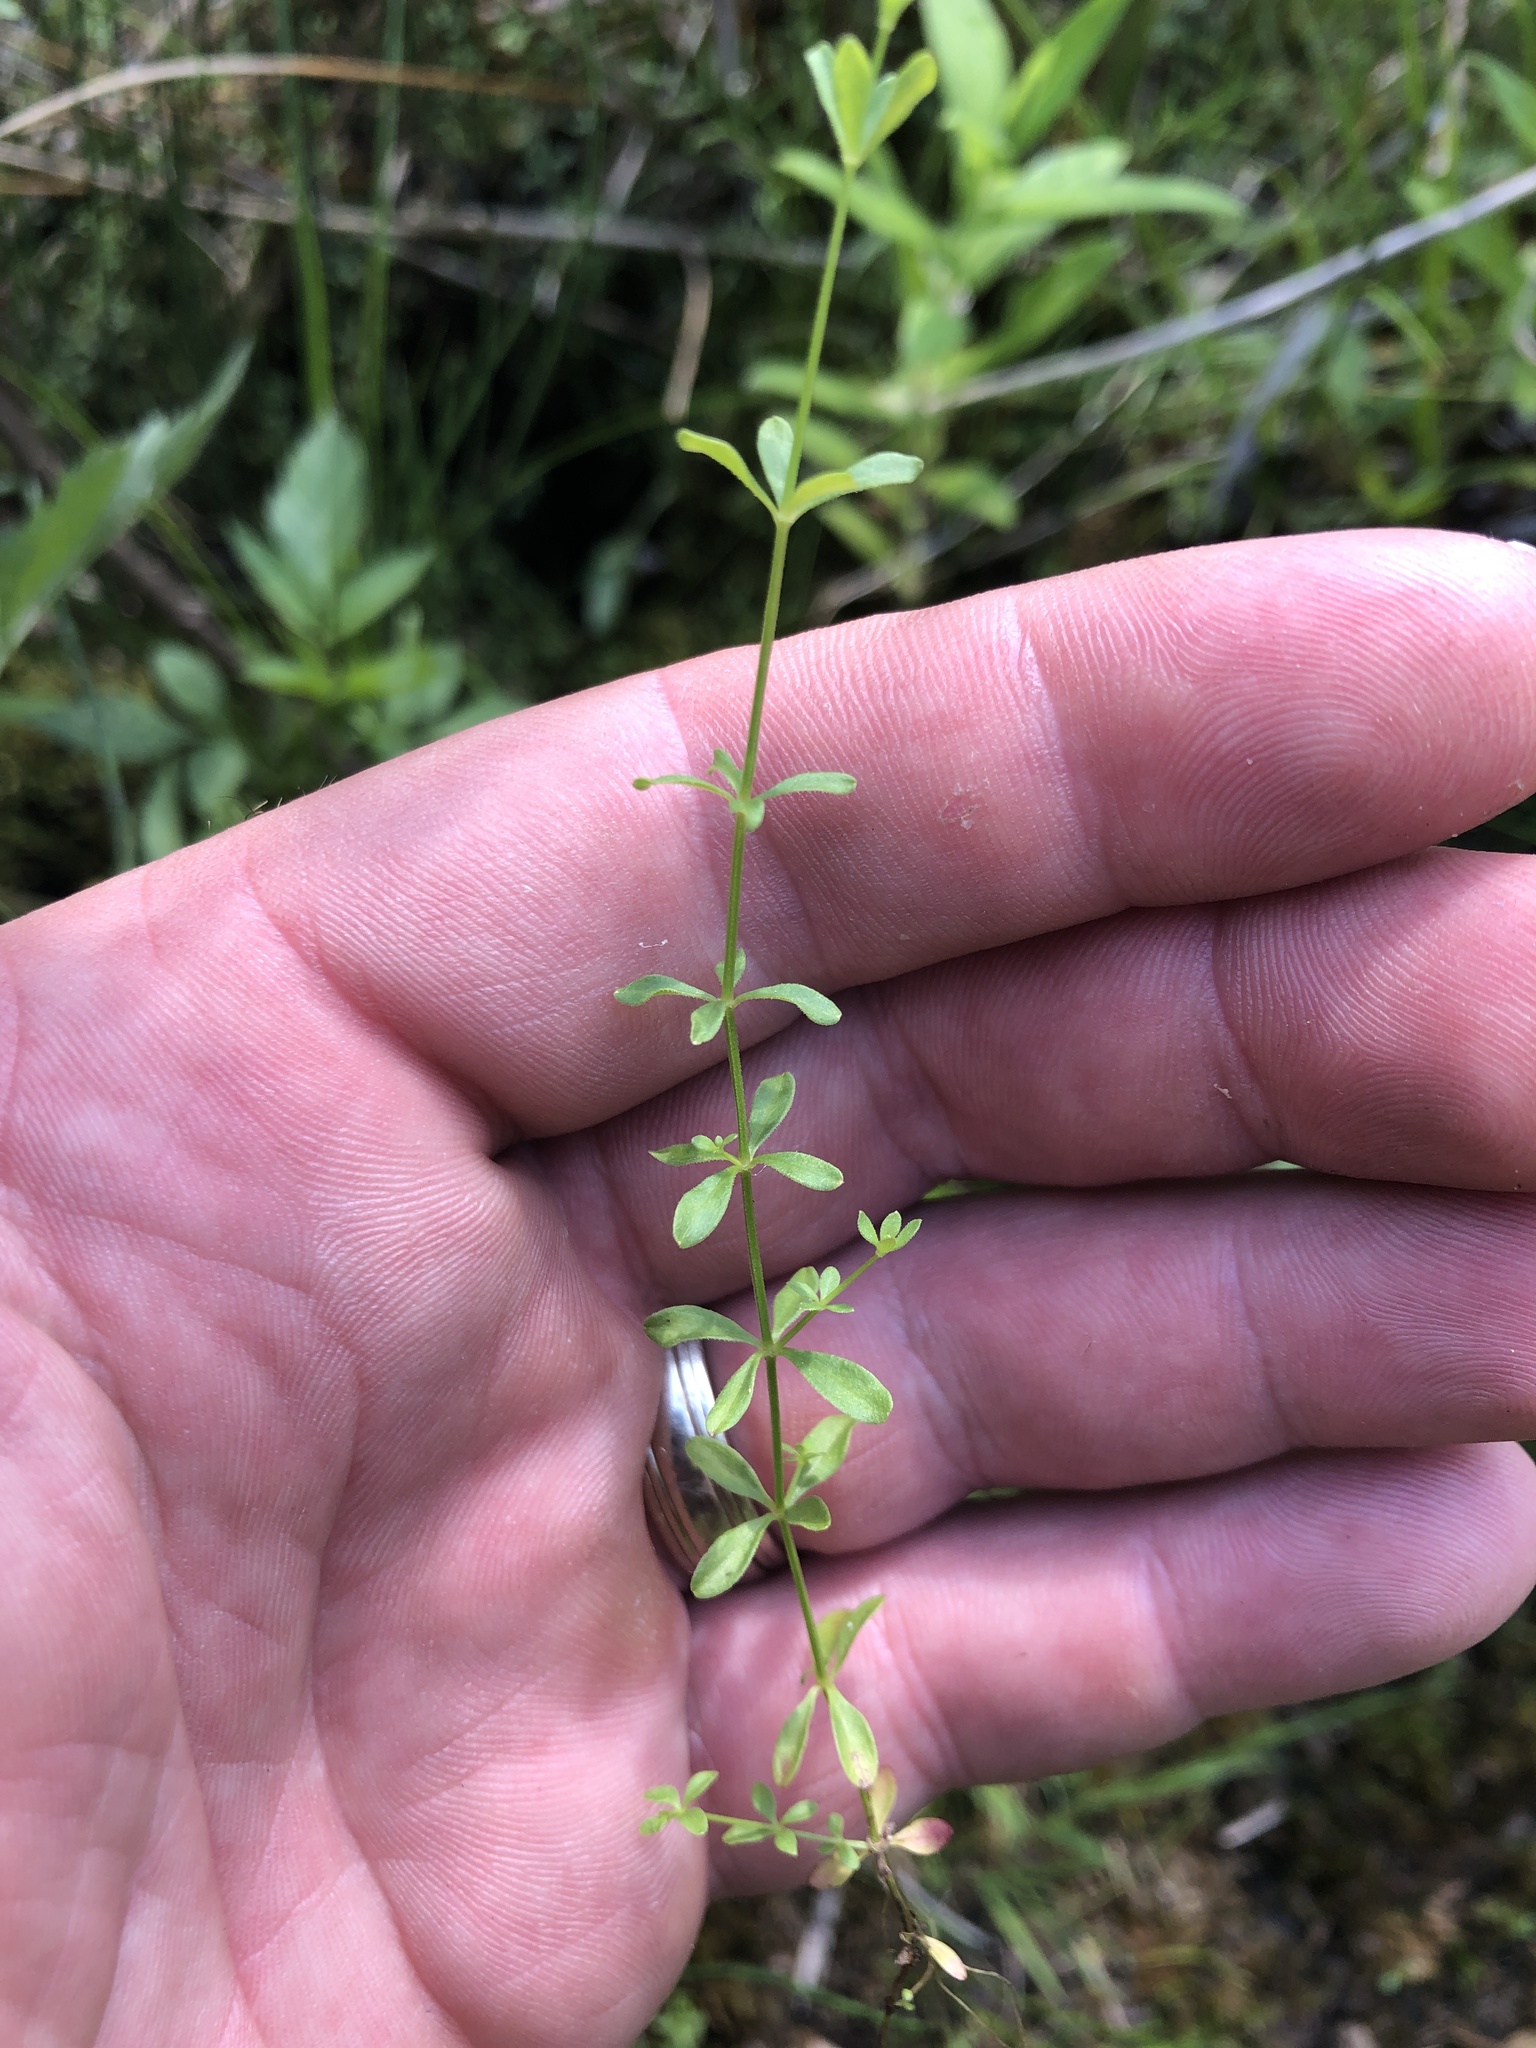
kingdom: Plantae
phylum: Tracheophyta
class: Magnoliopsida
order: Gentianales
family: Rubiaceae
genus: Galium
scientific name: Galium palustre
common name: Common marsh-bedstraw
